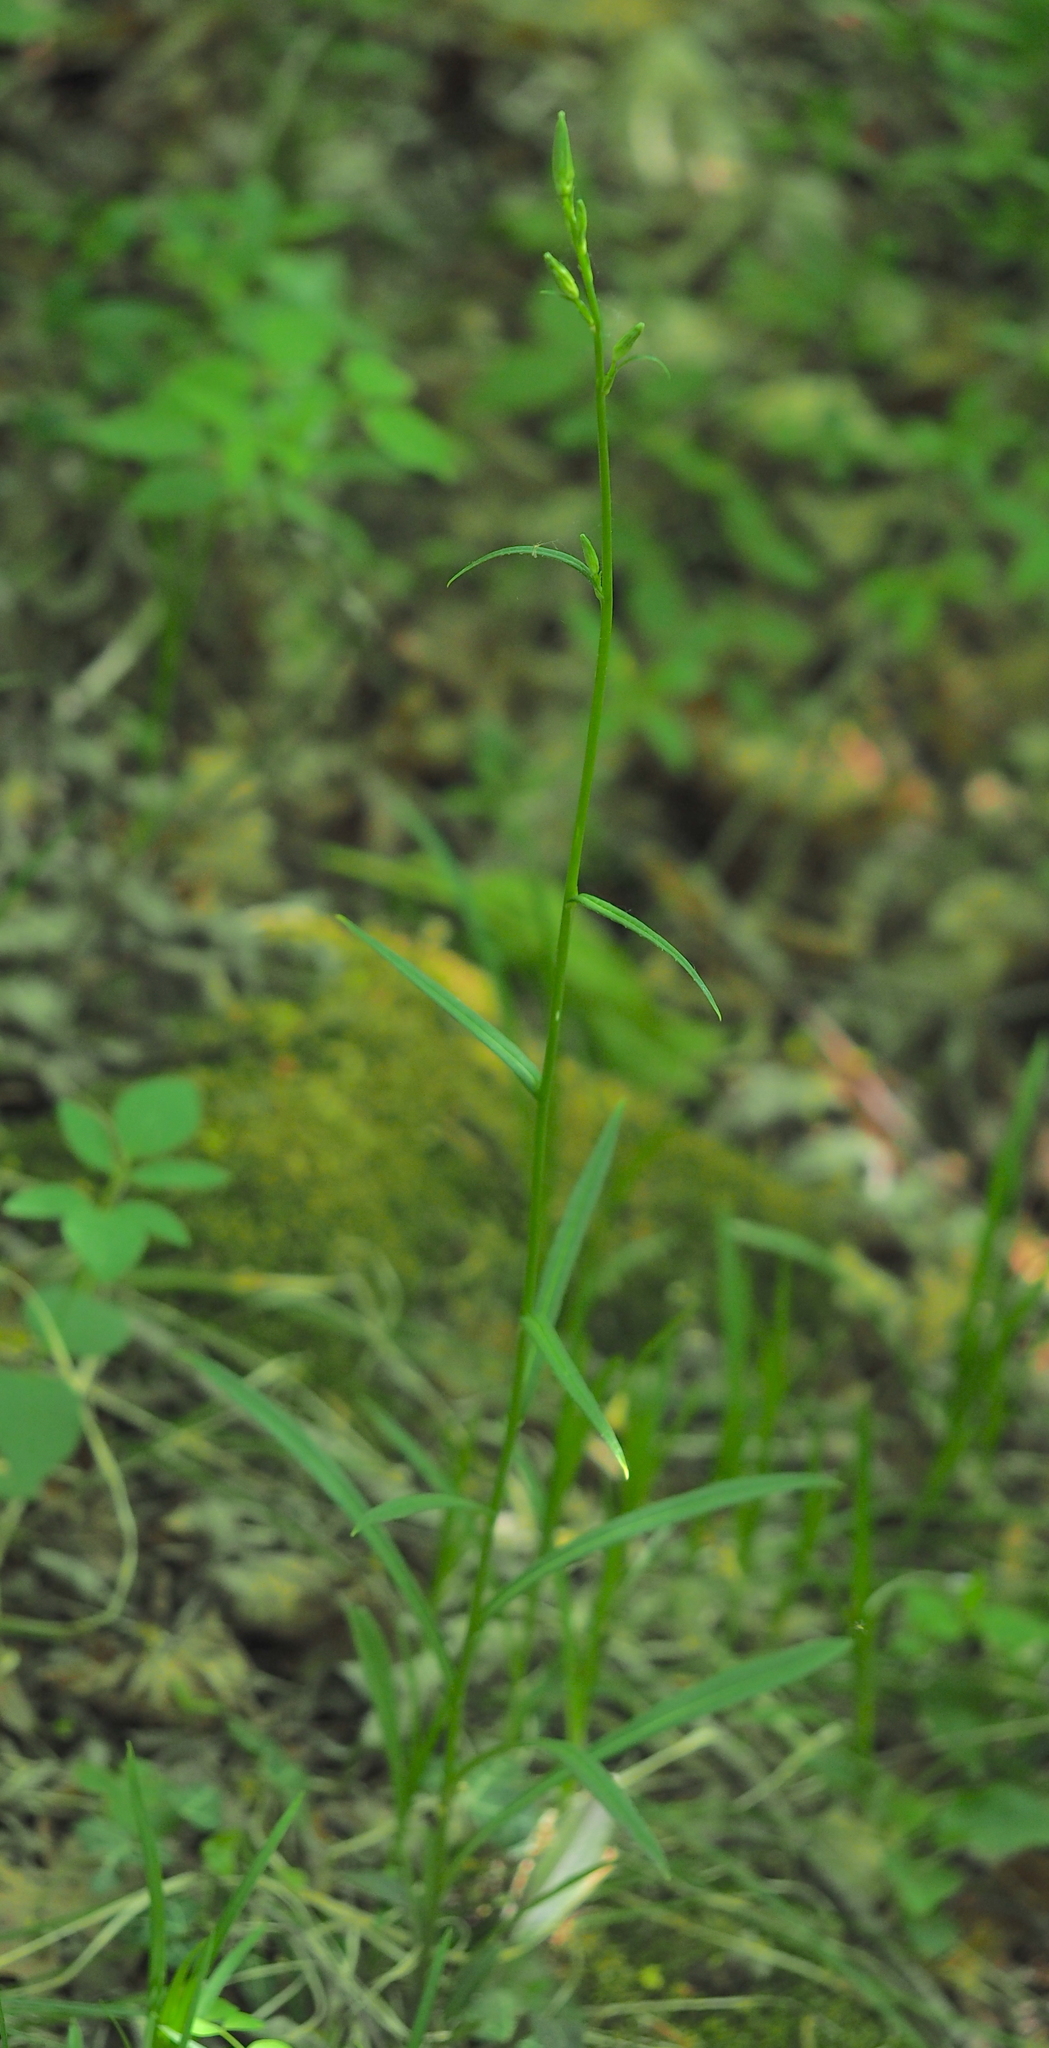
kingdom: Plantae
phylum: Tracheophyta
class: Magnoliopsida
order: Asterales
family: Campanulaceae
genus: Campanula
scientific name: Campanula persicifolia
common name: Peach-leaved bellflower
